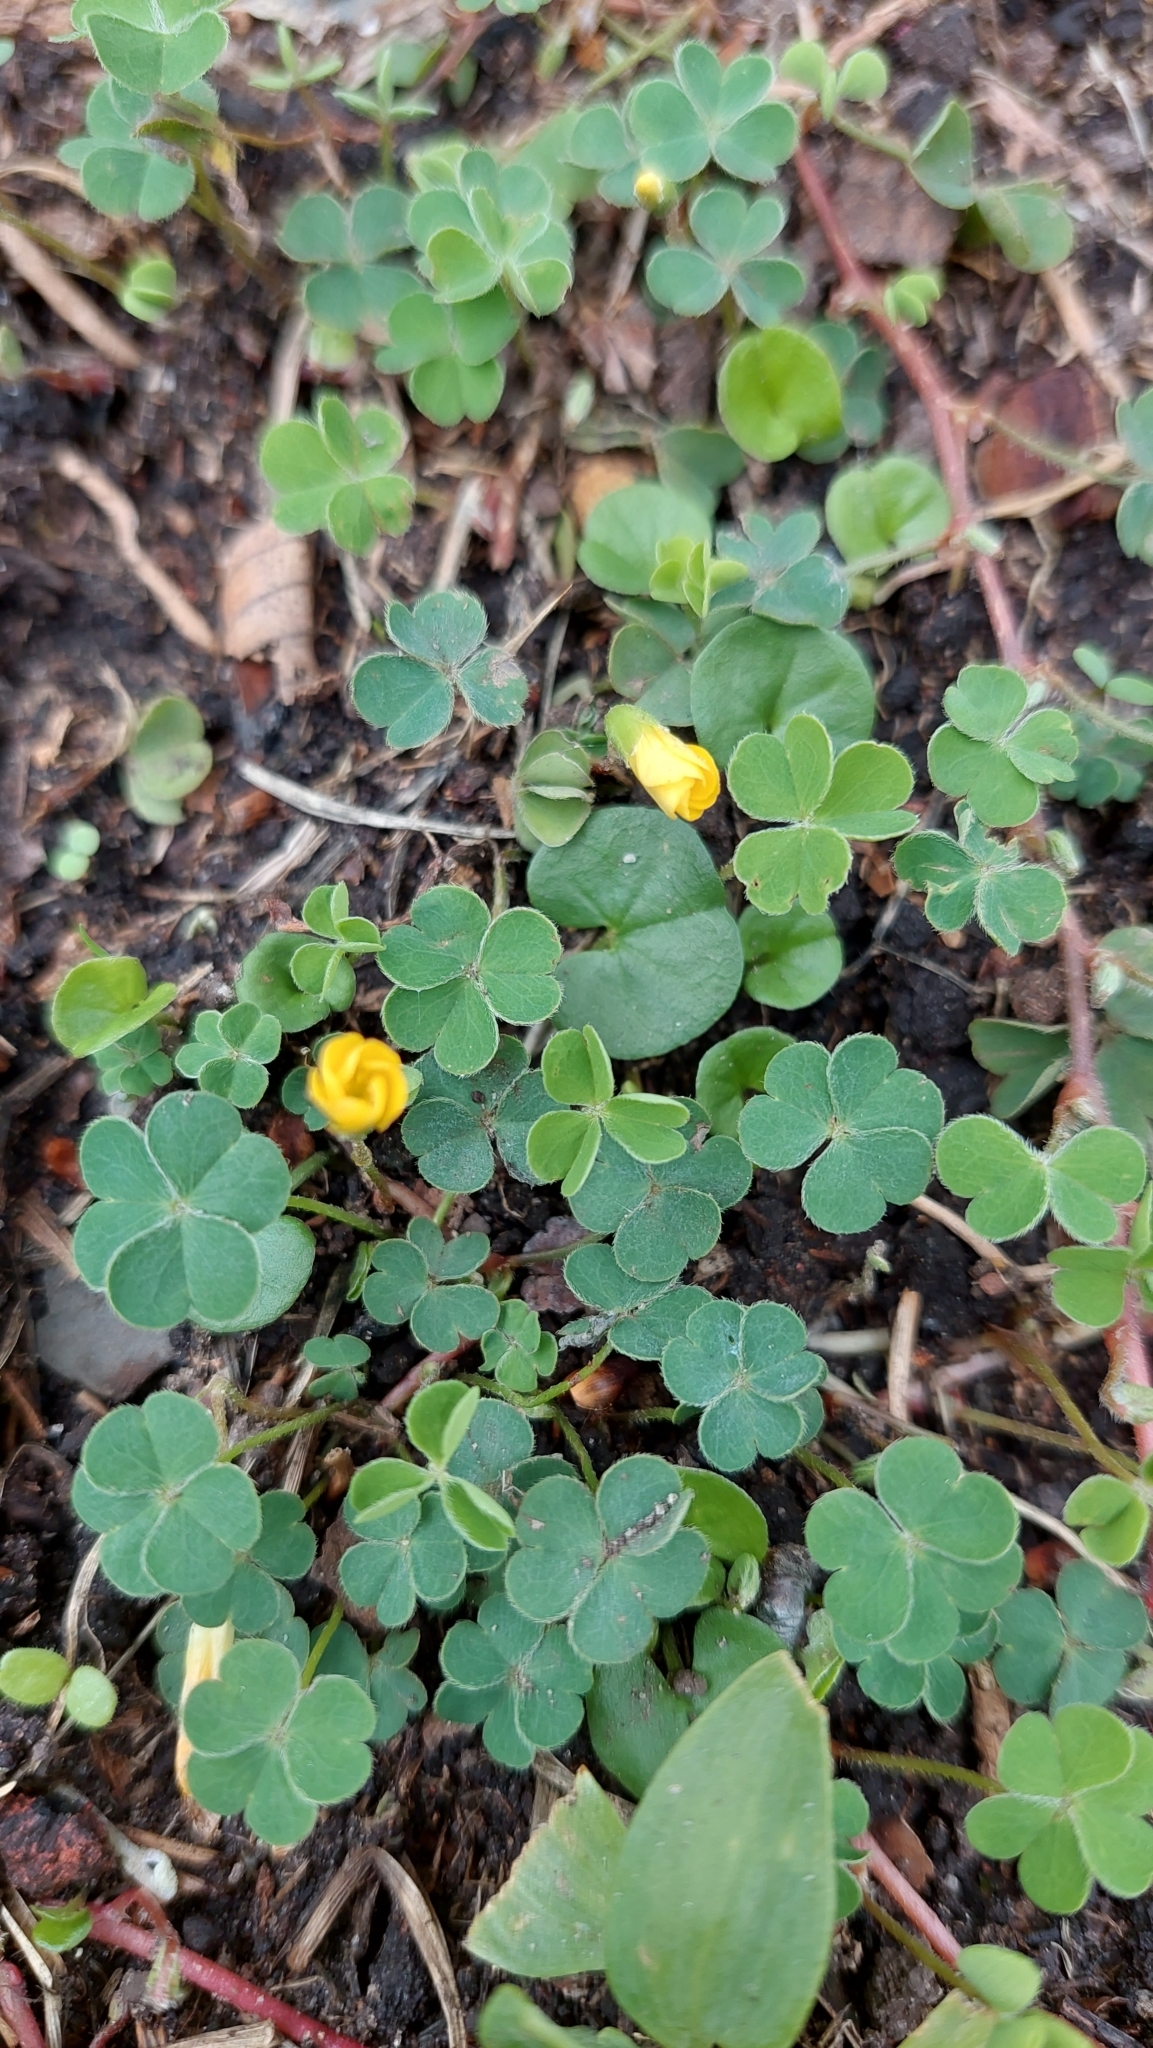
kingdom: Plantae
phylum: Tracheophyta
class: Magnoliopsida
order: Oxalidales
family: Oxalidaceae
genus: Oxalis
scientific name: Oxalis corniculata
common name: Procumbent yellow-sorrel
